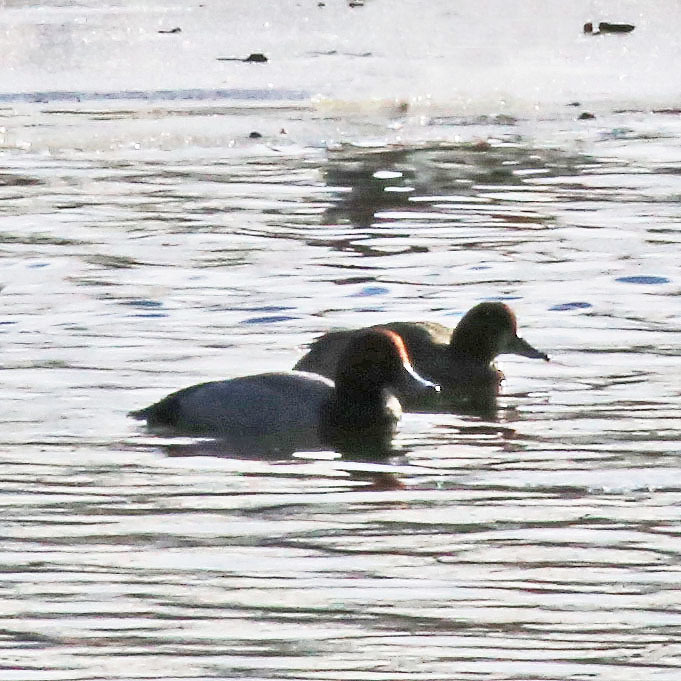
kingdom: Animalia
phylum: Chordata
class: Aves
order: Anseriformes
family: Anatidae
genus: Aythya
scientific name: Aythya americana
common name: Redhead
